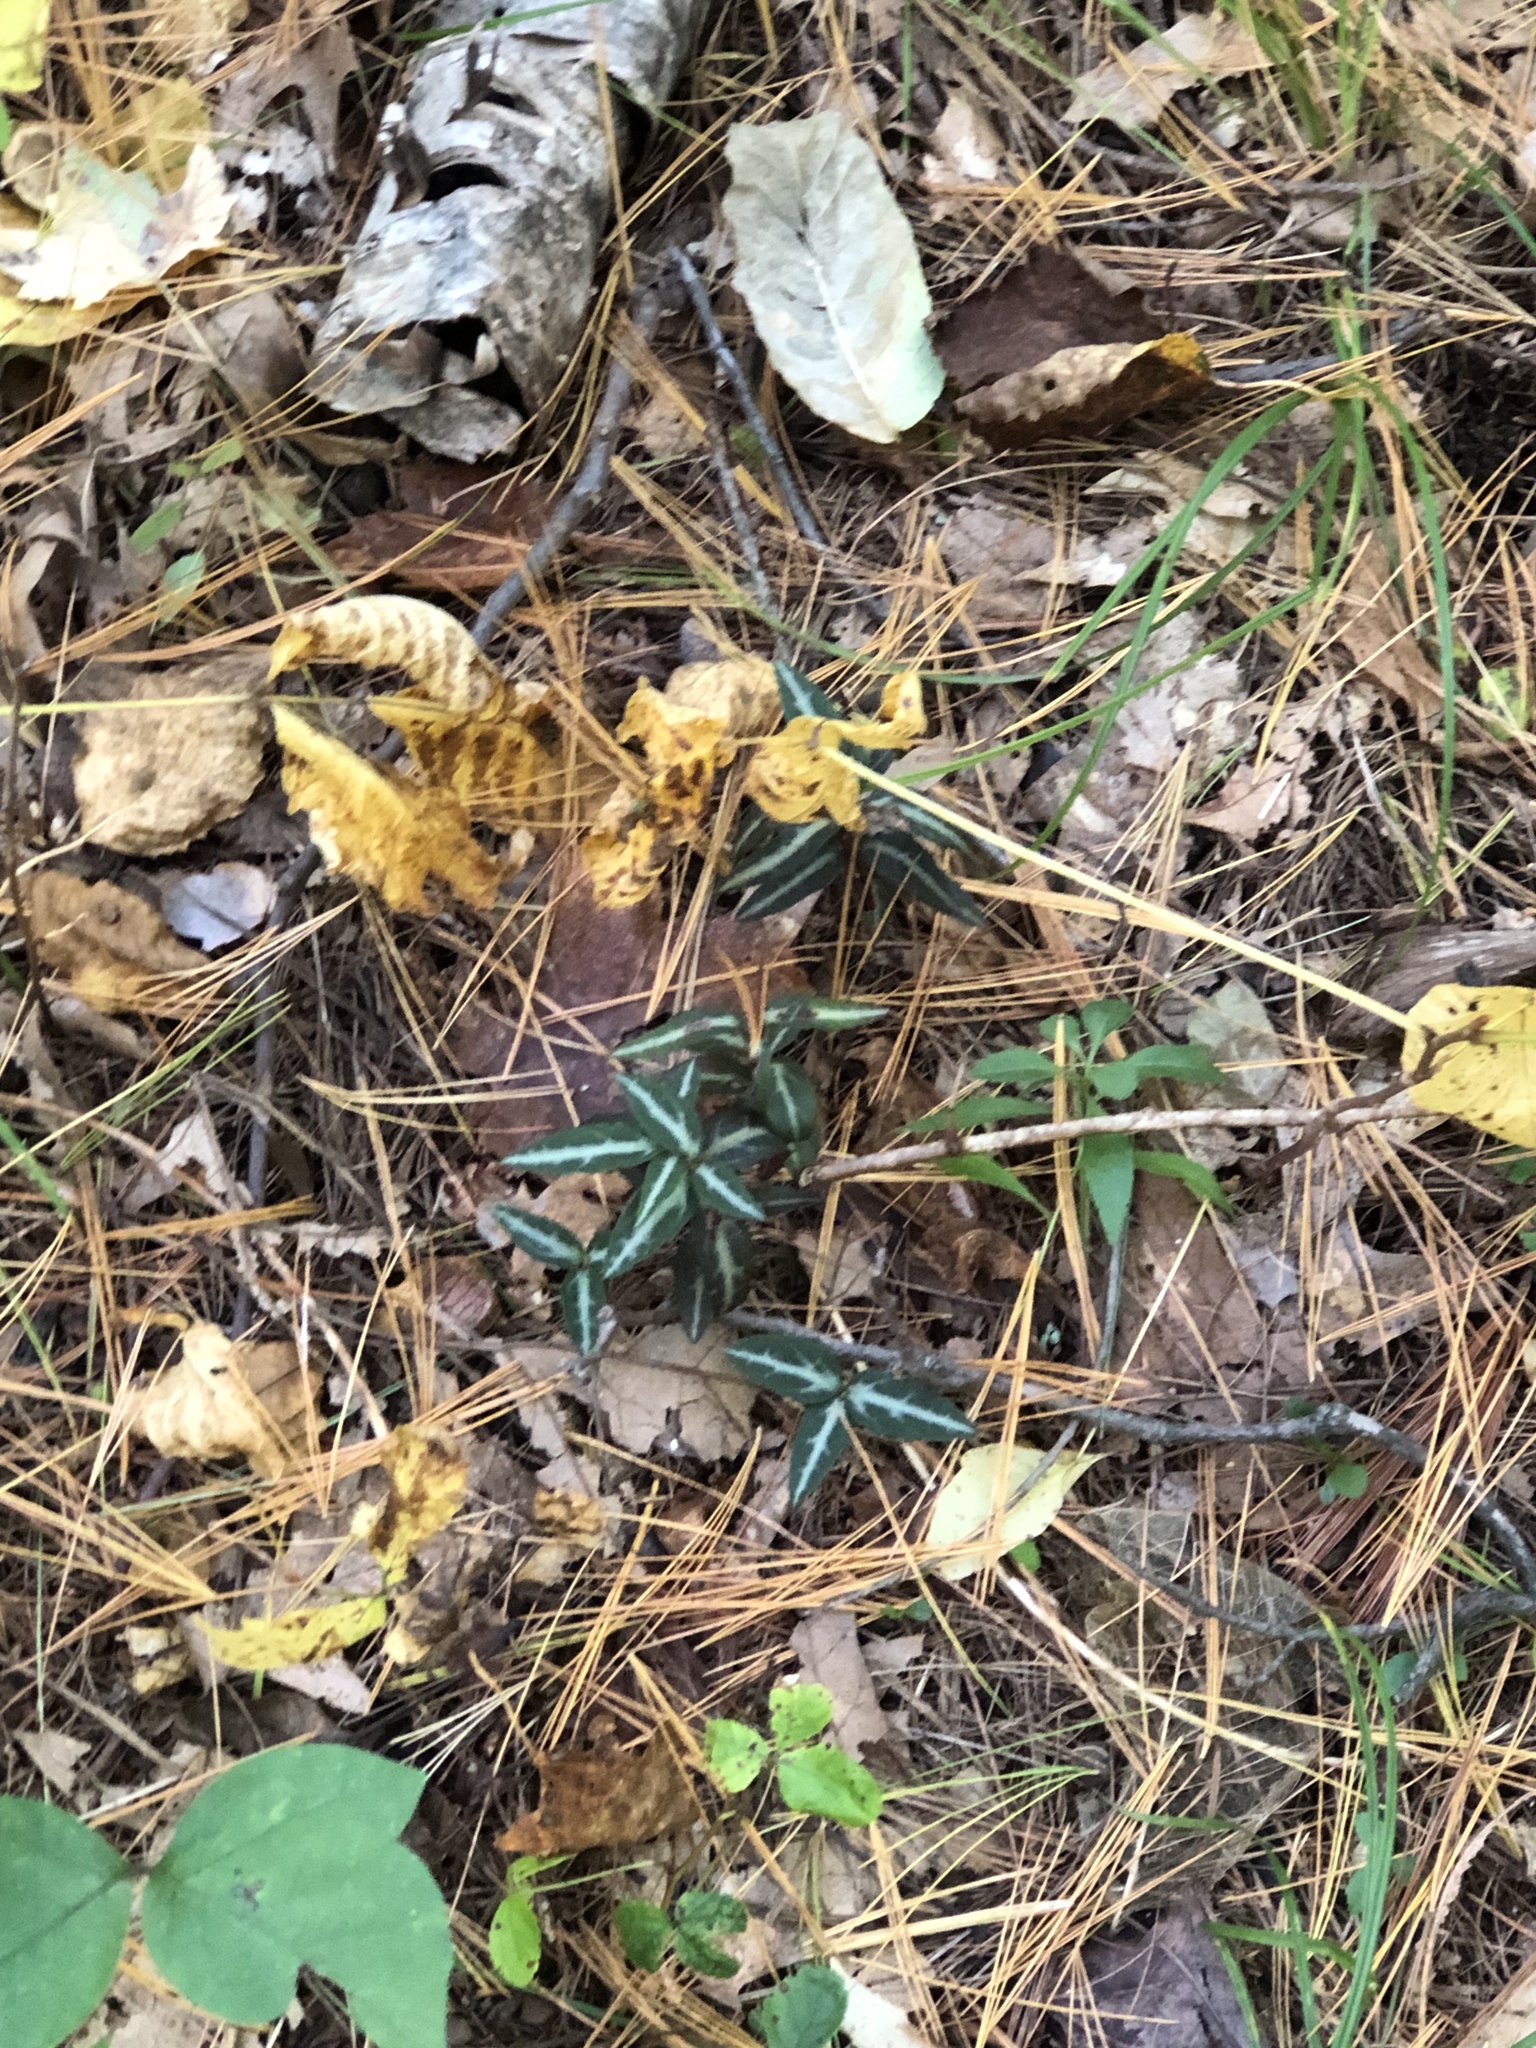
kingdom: Plantae
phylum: Tracheophyta
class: Magnoliopsida
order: Ericales
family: Ericaceae
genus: Chimaphila
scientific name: Chimaphila maculata
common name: Spotted pipsissewa
